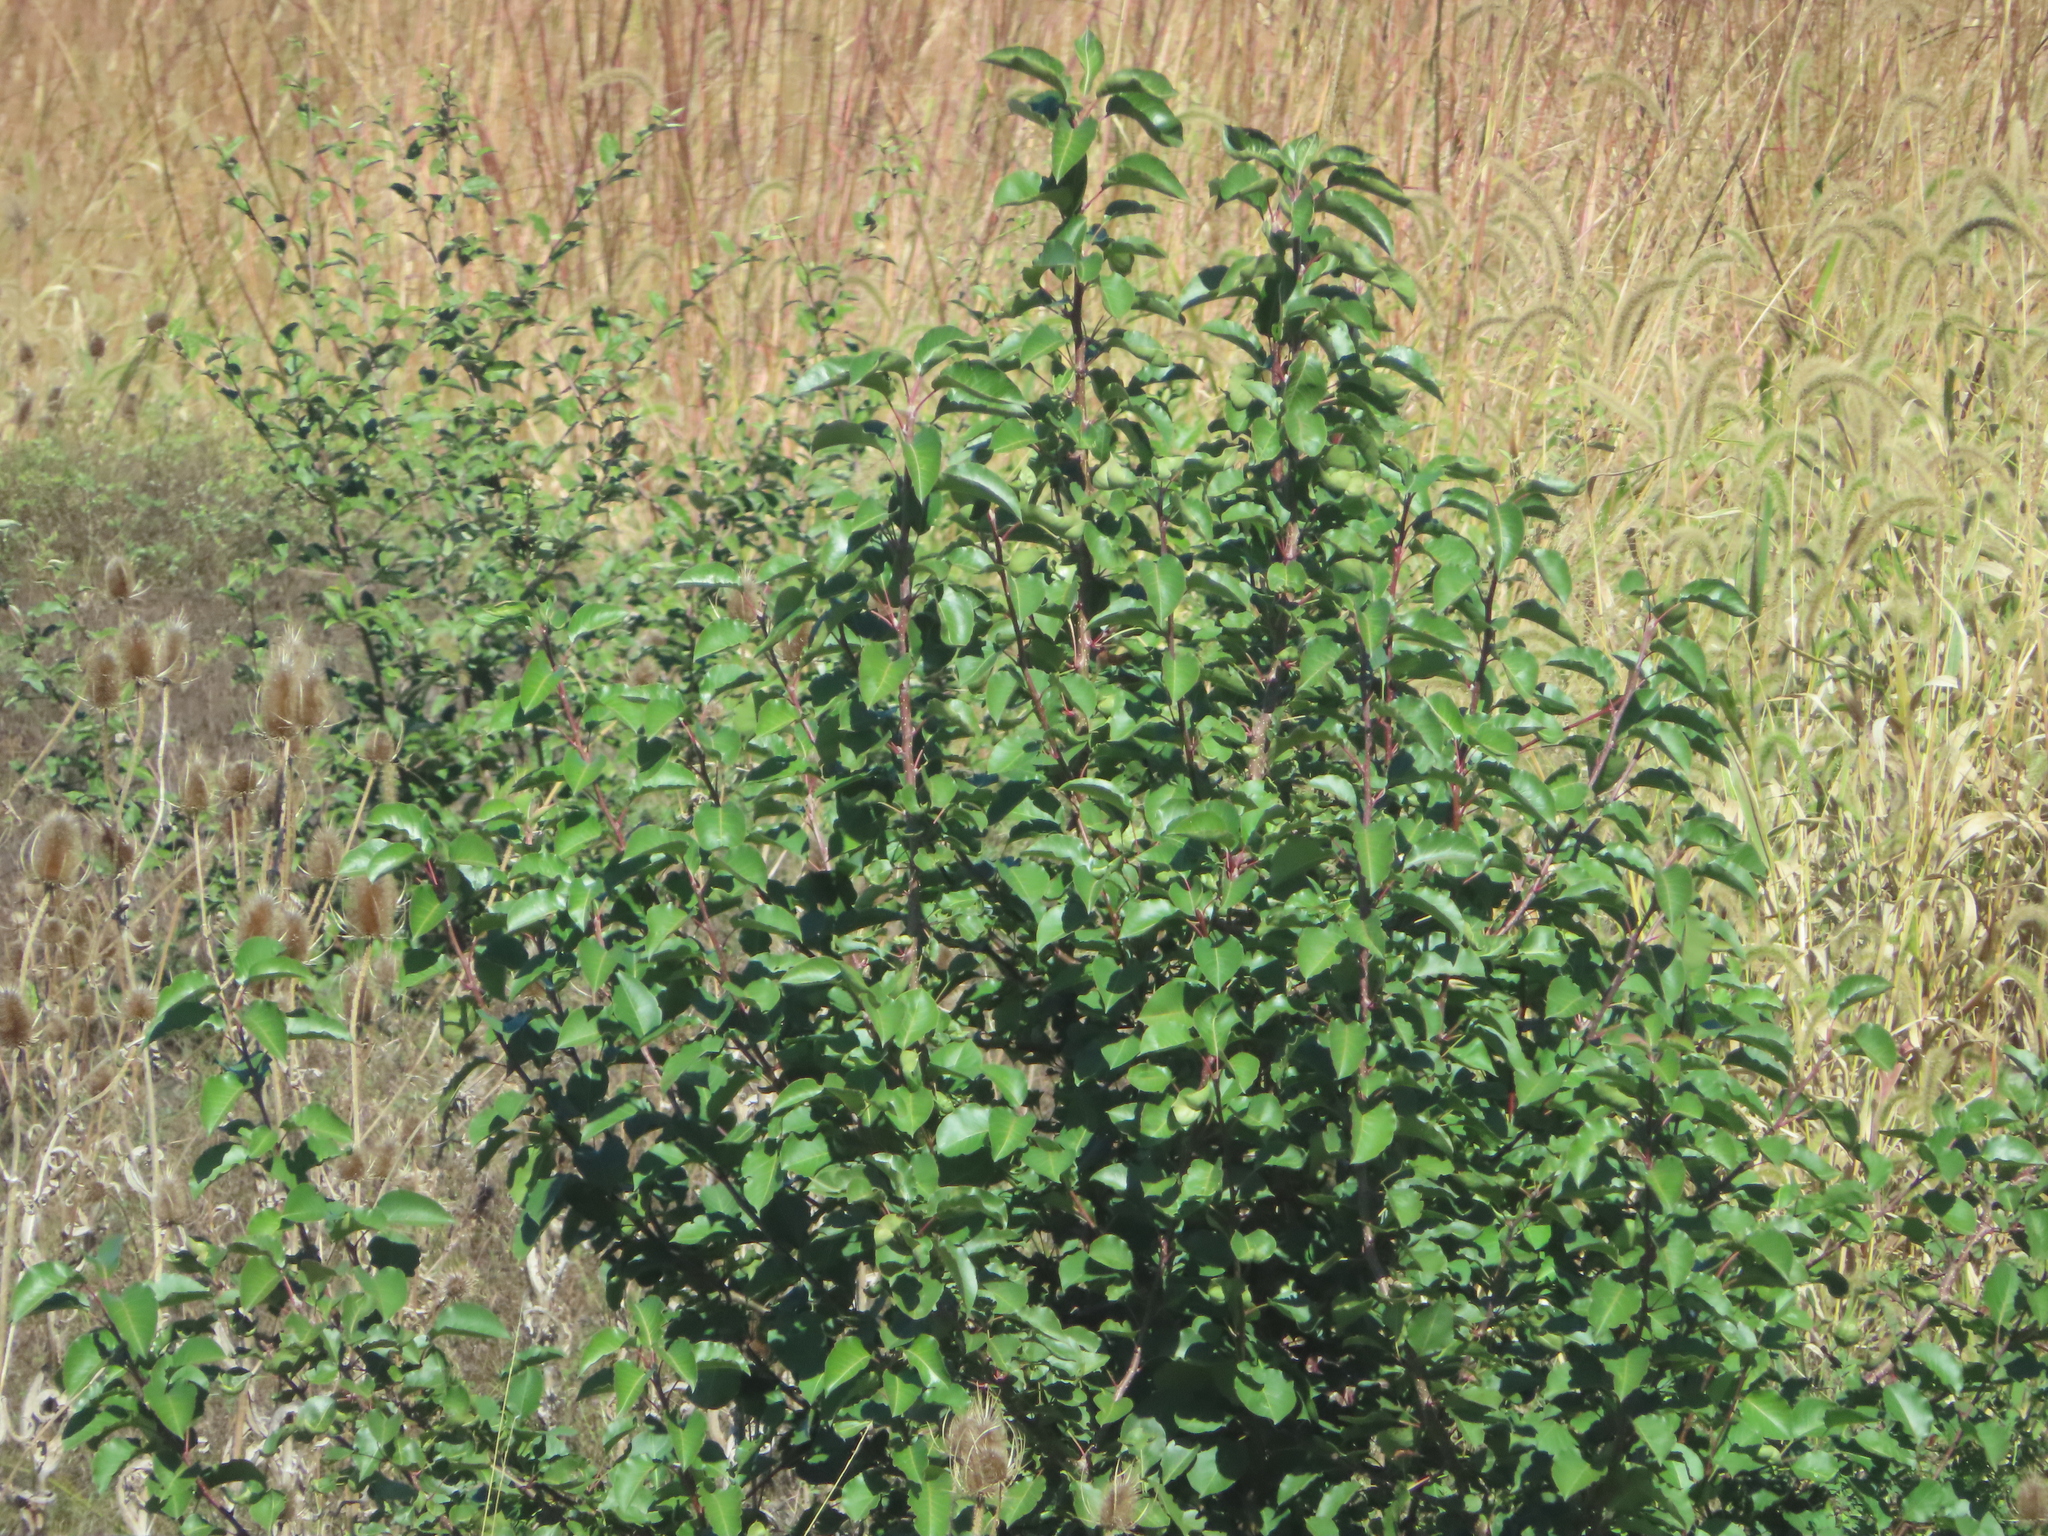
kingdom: Plantae
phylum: Tracheophyta
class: Magnoliopsida
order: Rosales
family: Rosaceae
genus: Pyrus
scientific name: Pyrus calleryana
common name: Callery pear
